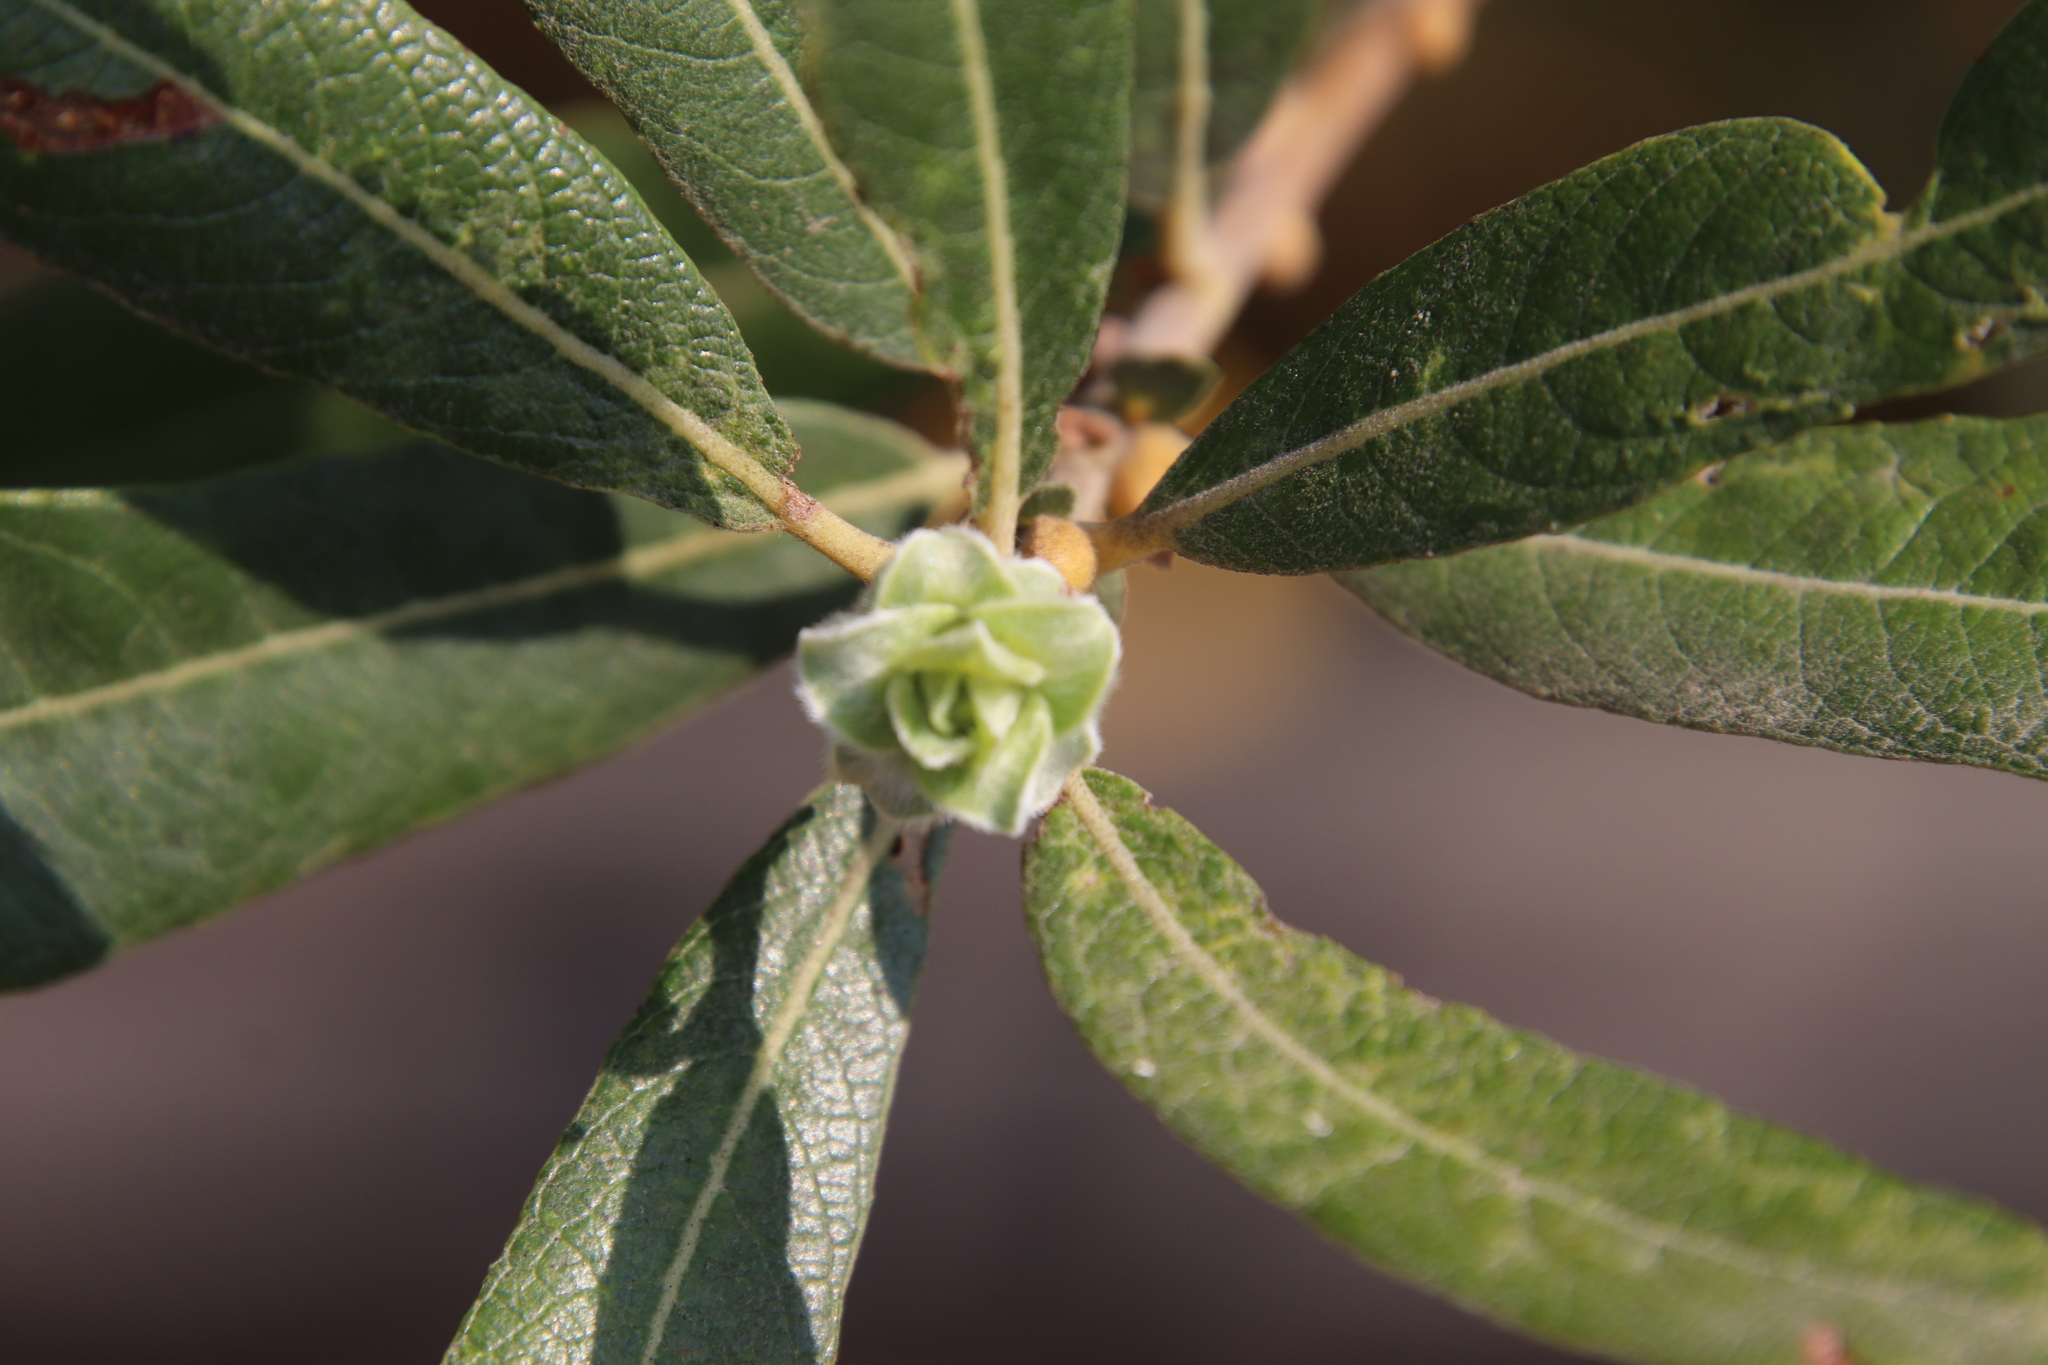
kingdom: Animalia
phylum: Arthropoda
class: Insecta
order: Diptera
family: Cecidomyiidae
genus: Rabdophaga
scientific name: Rabdophaga salicisbrassicoides
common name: Willow cabbagegall midge
